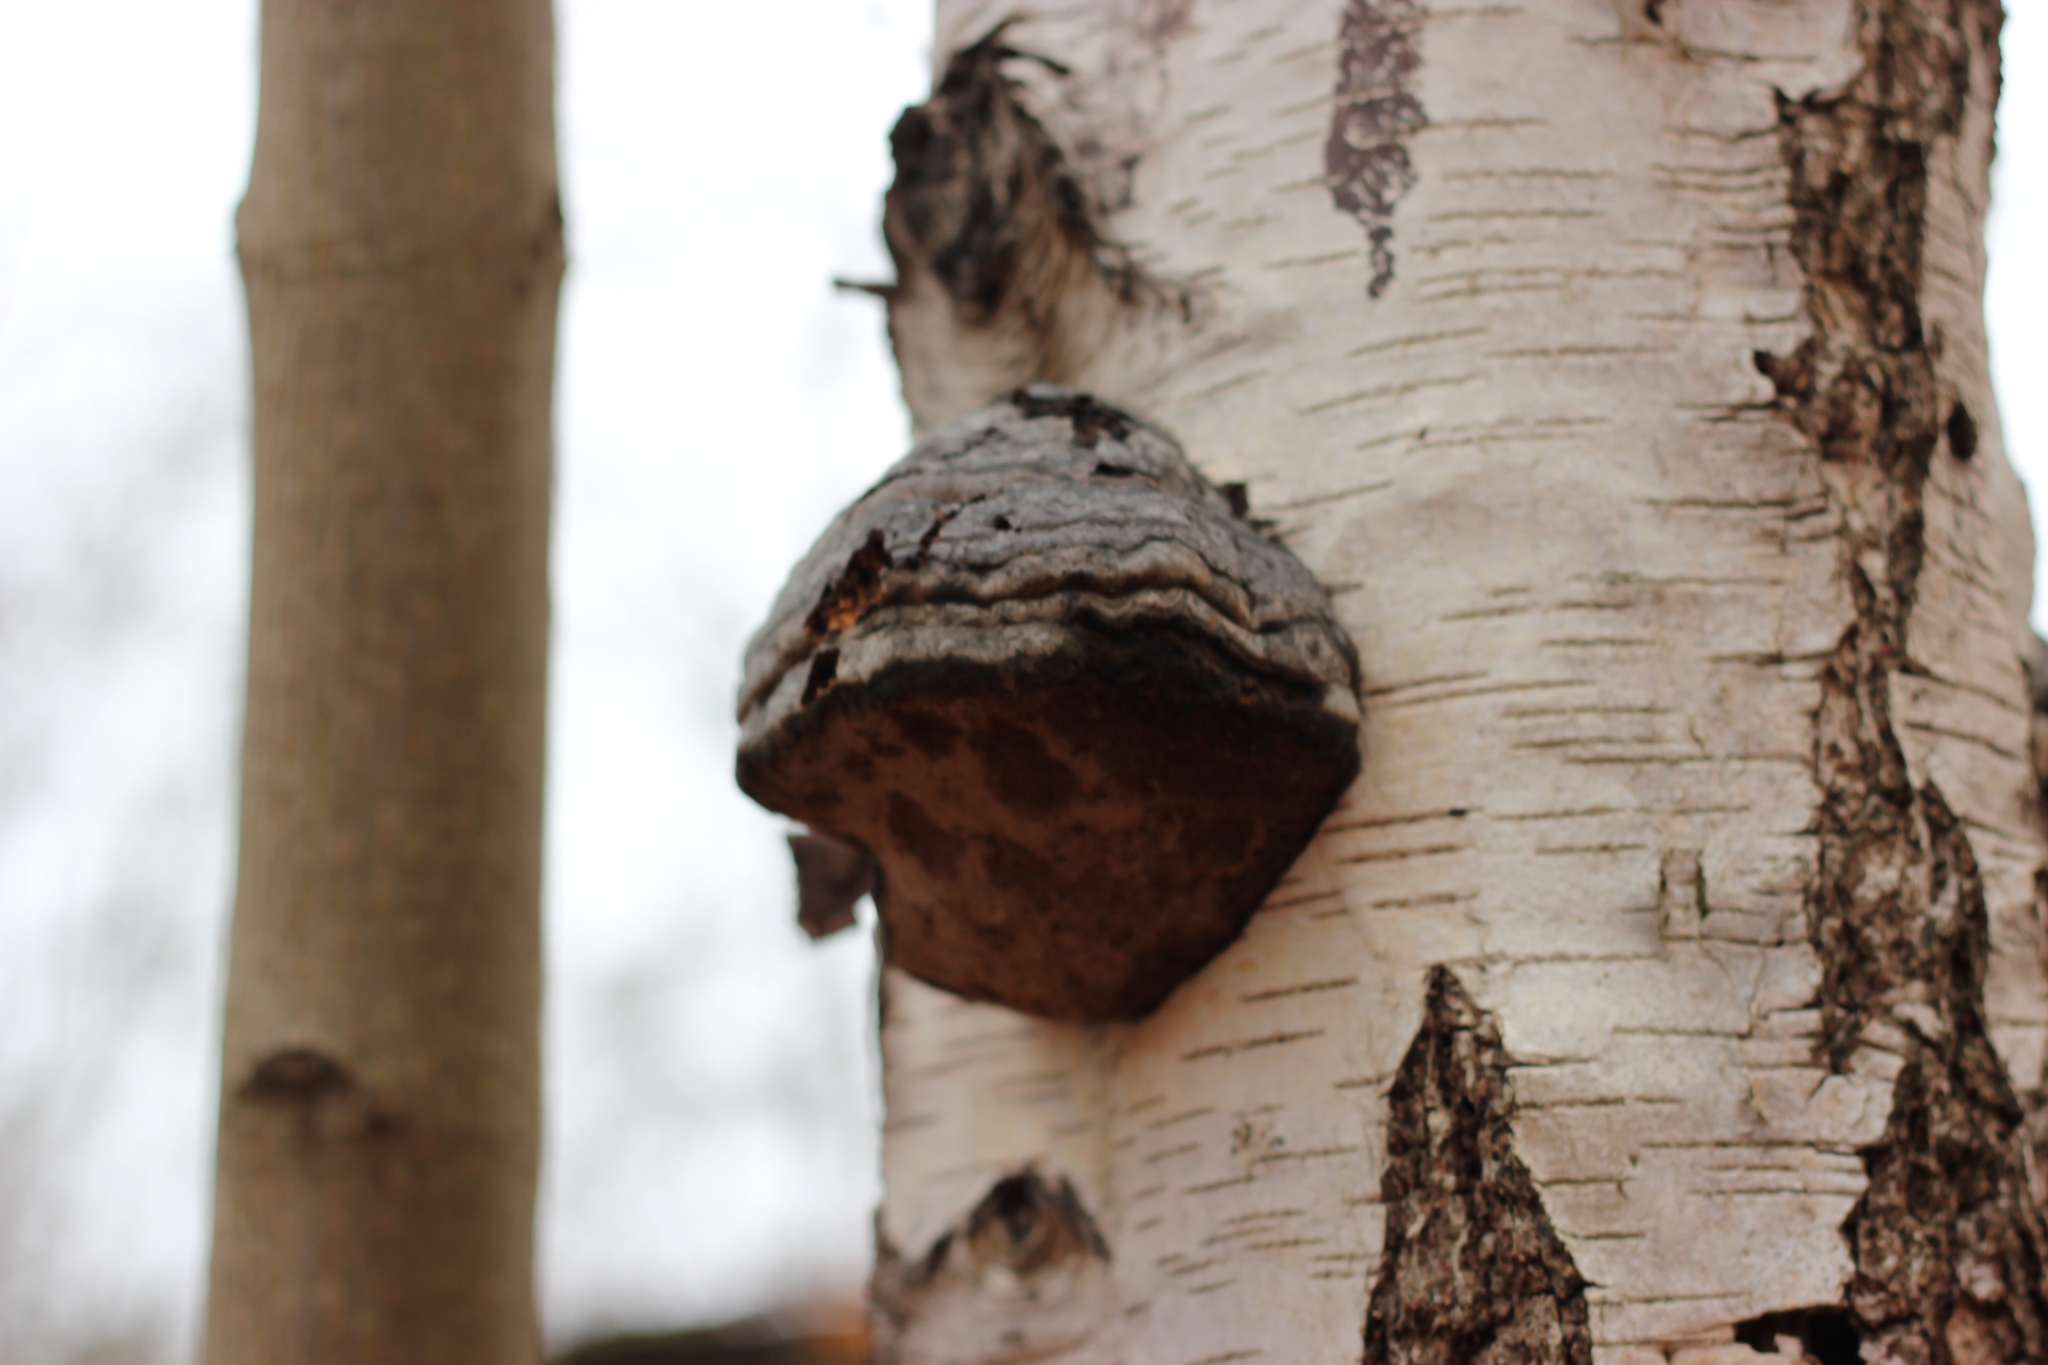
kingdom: Fungi
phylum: Basidiomycota
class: Agaricomycetes
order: Polyporales
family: Polyporaceae
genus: Fomes
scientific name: Fomes fomentarius
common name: Hoof fungus
